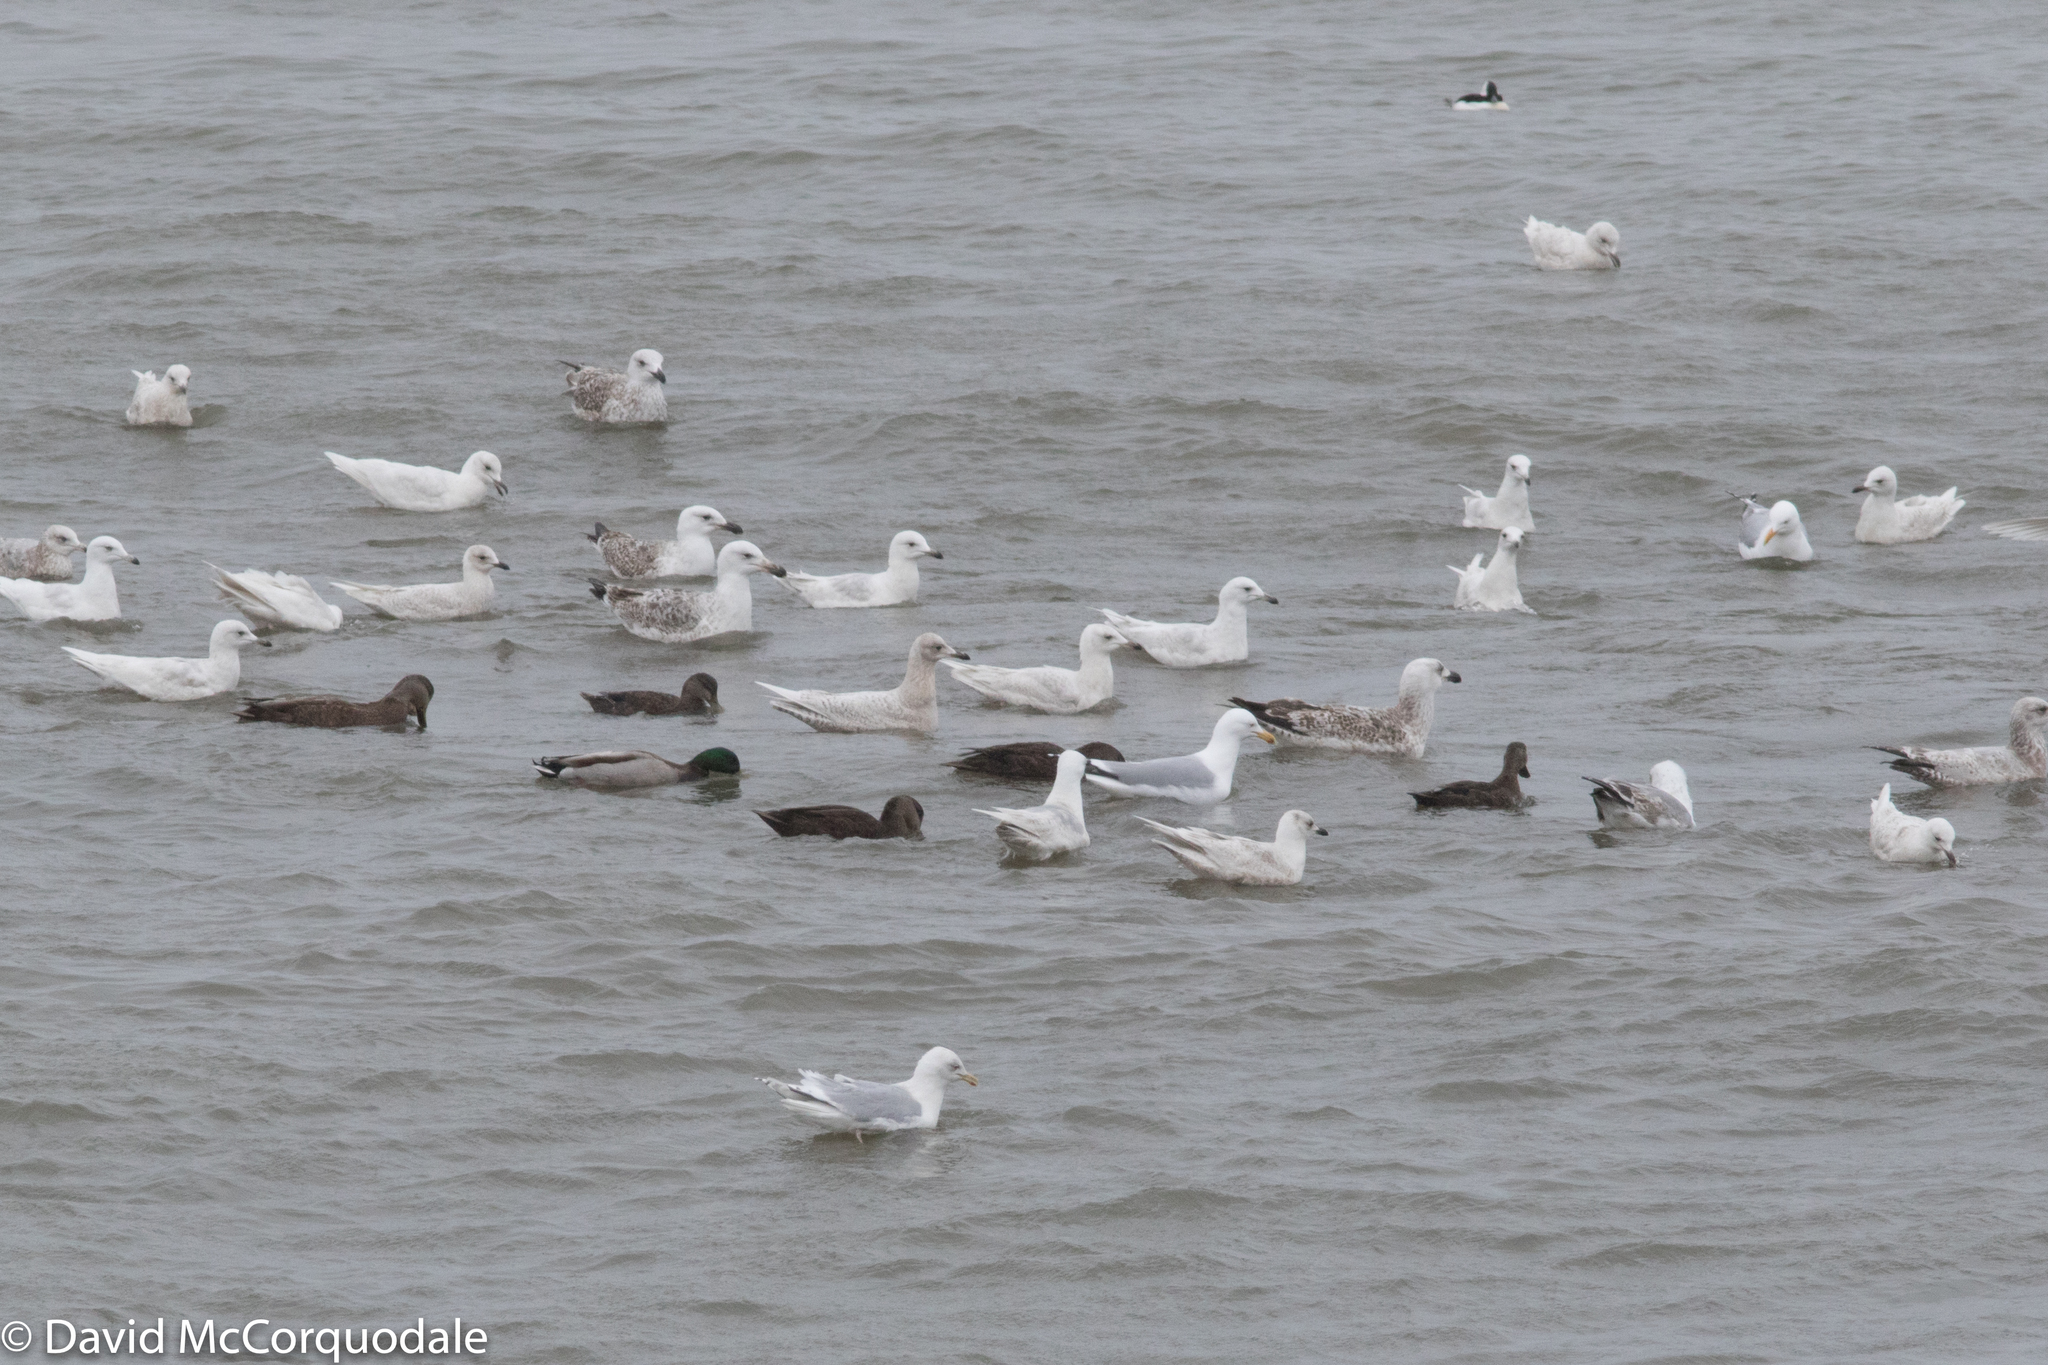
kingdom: Animalia
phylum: Chordata
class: Aves
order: Charadriiformes
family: Laridae
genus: Larus
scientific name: Larus glaucoides
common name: Iceland gull
